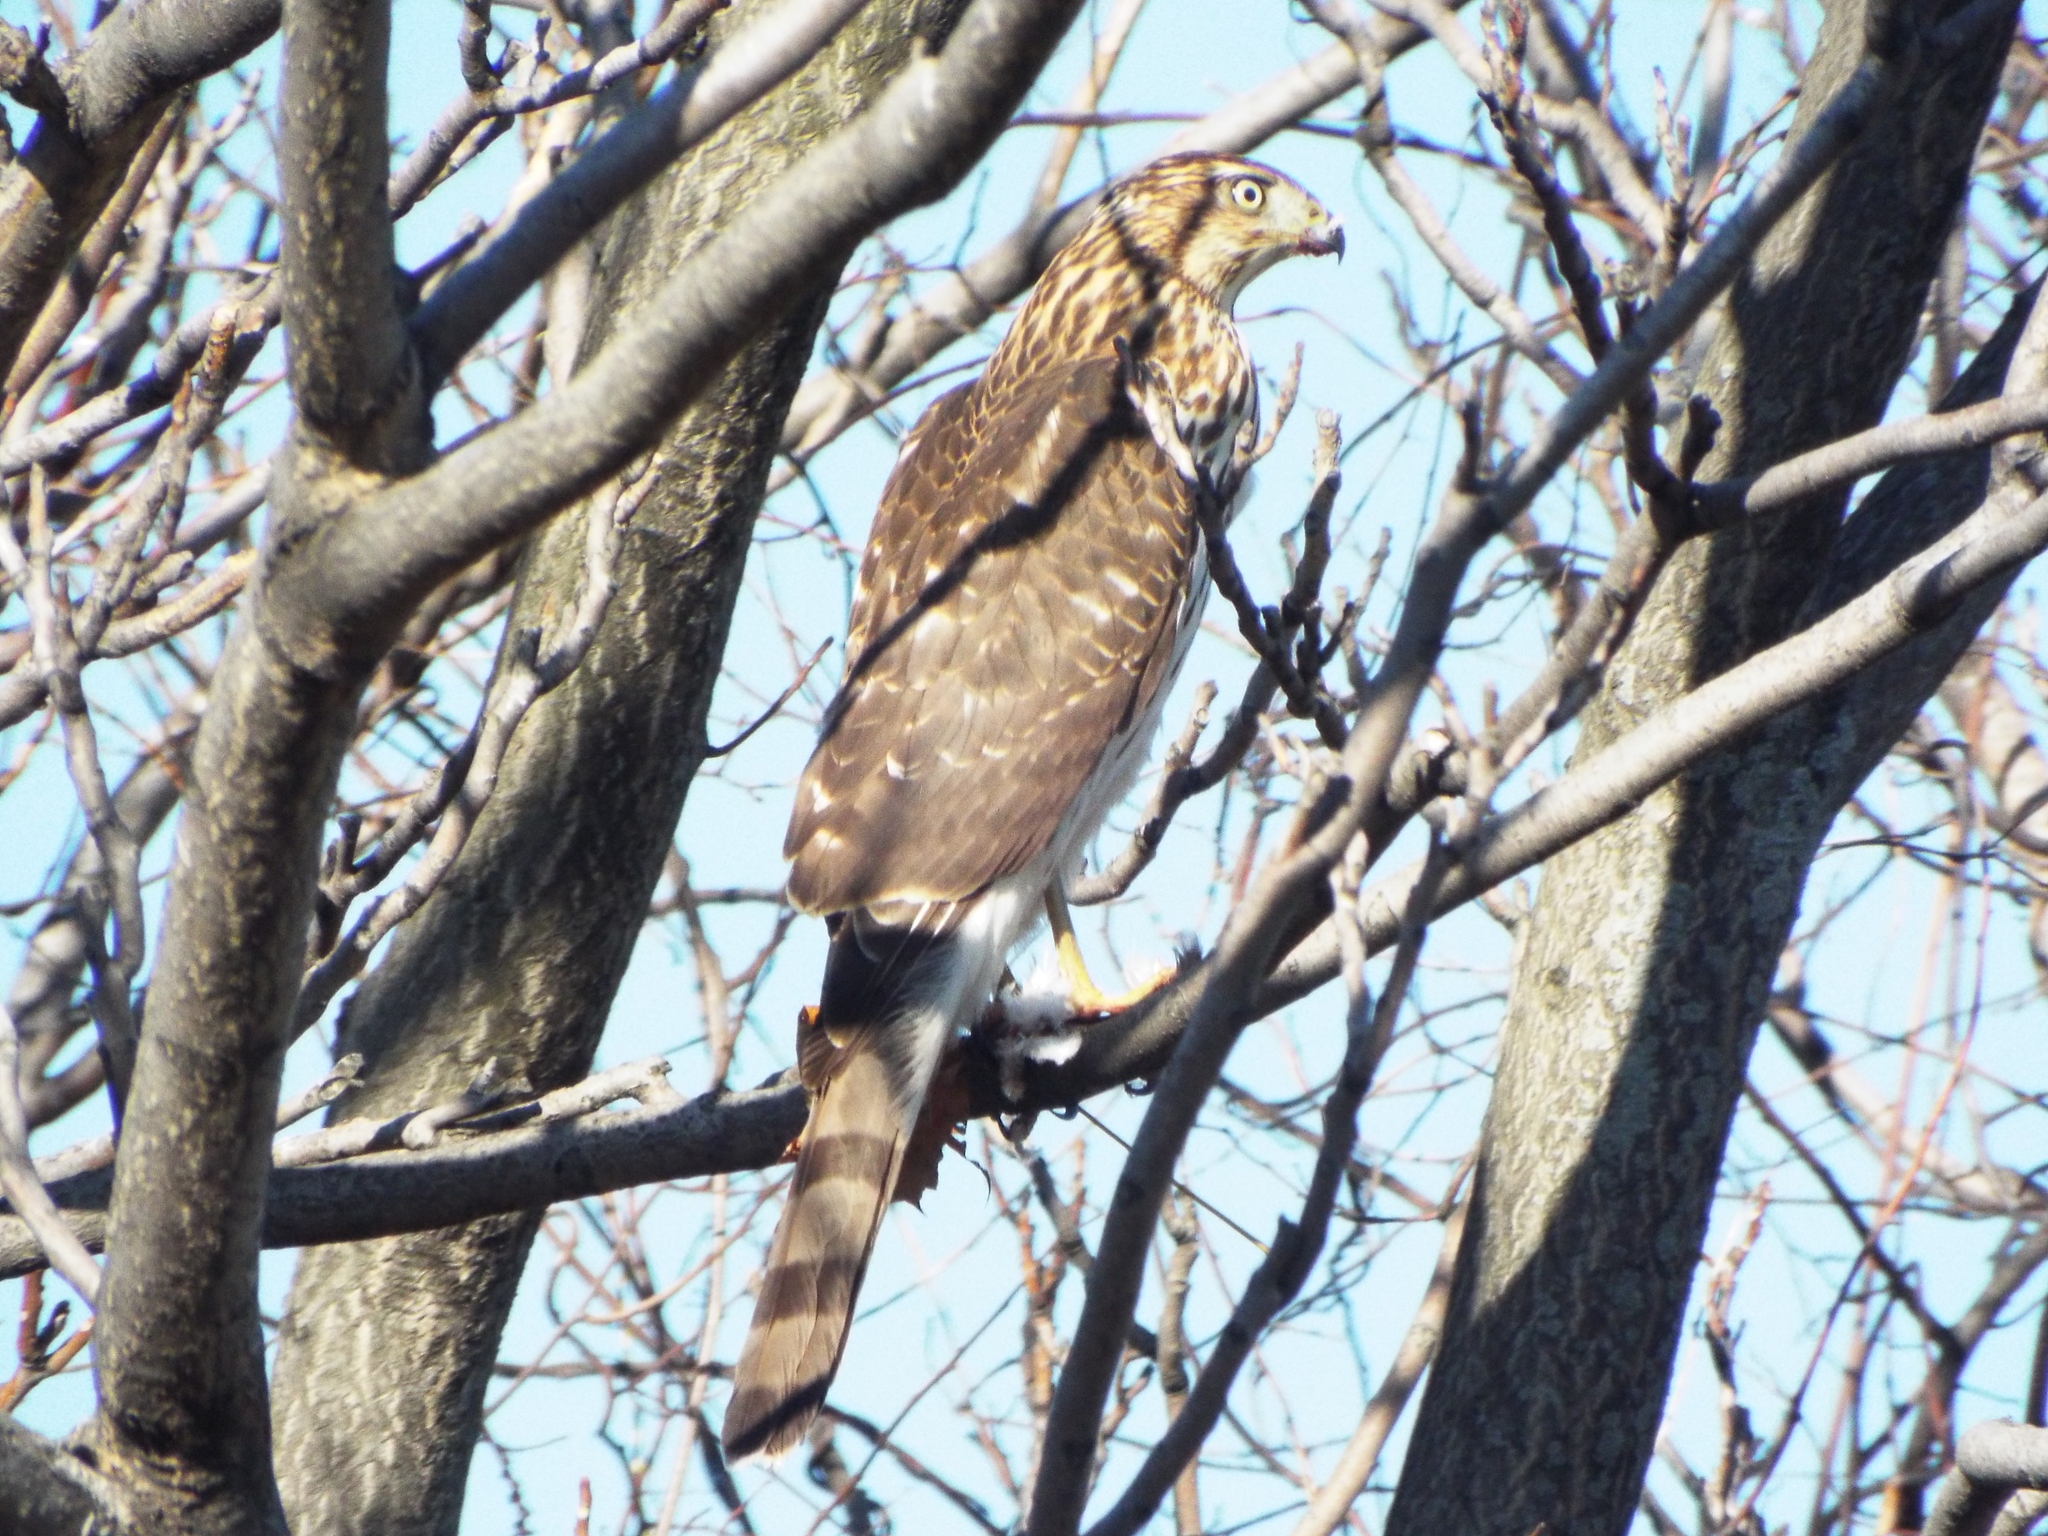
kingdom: Animalia
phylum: Chordata
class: Aves
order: Accipitriformes
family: Accipitridae
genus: Accipiter
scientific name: Accipiter cooperii
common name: Cooper's hawk
